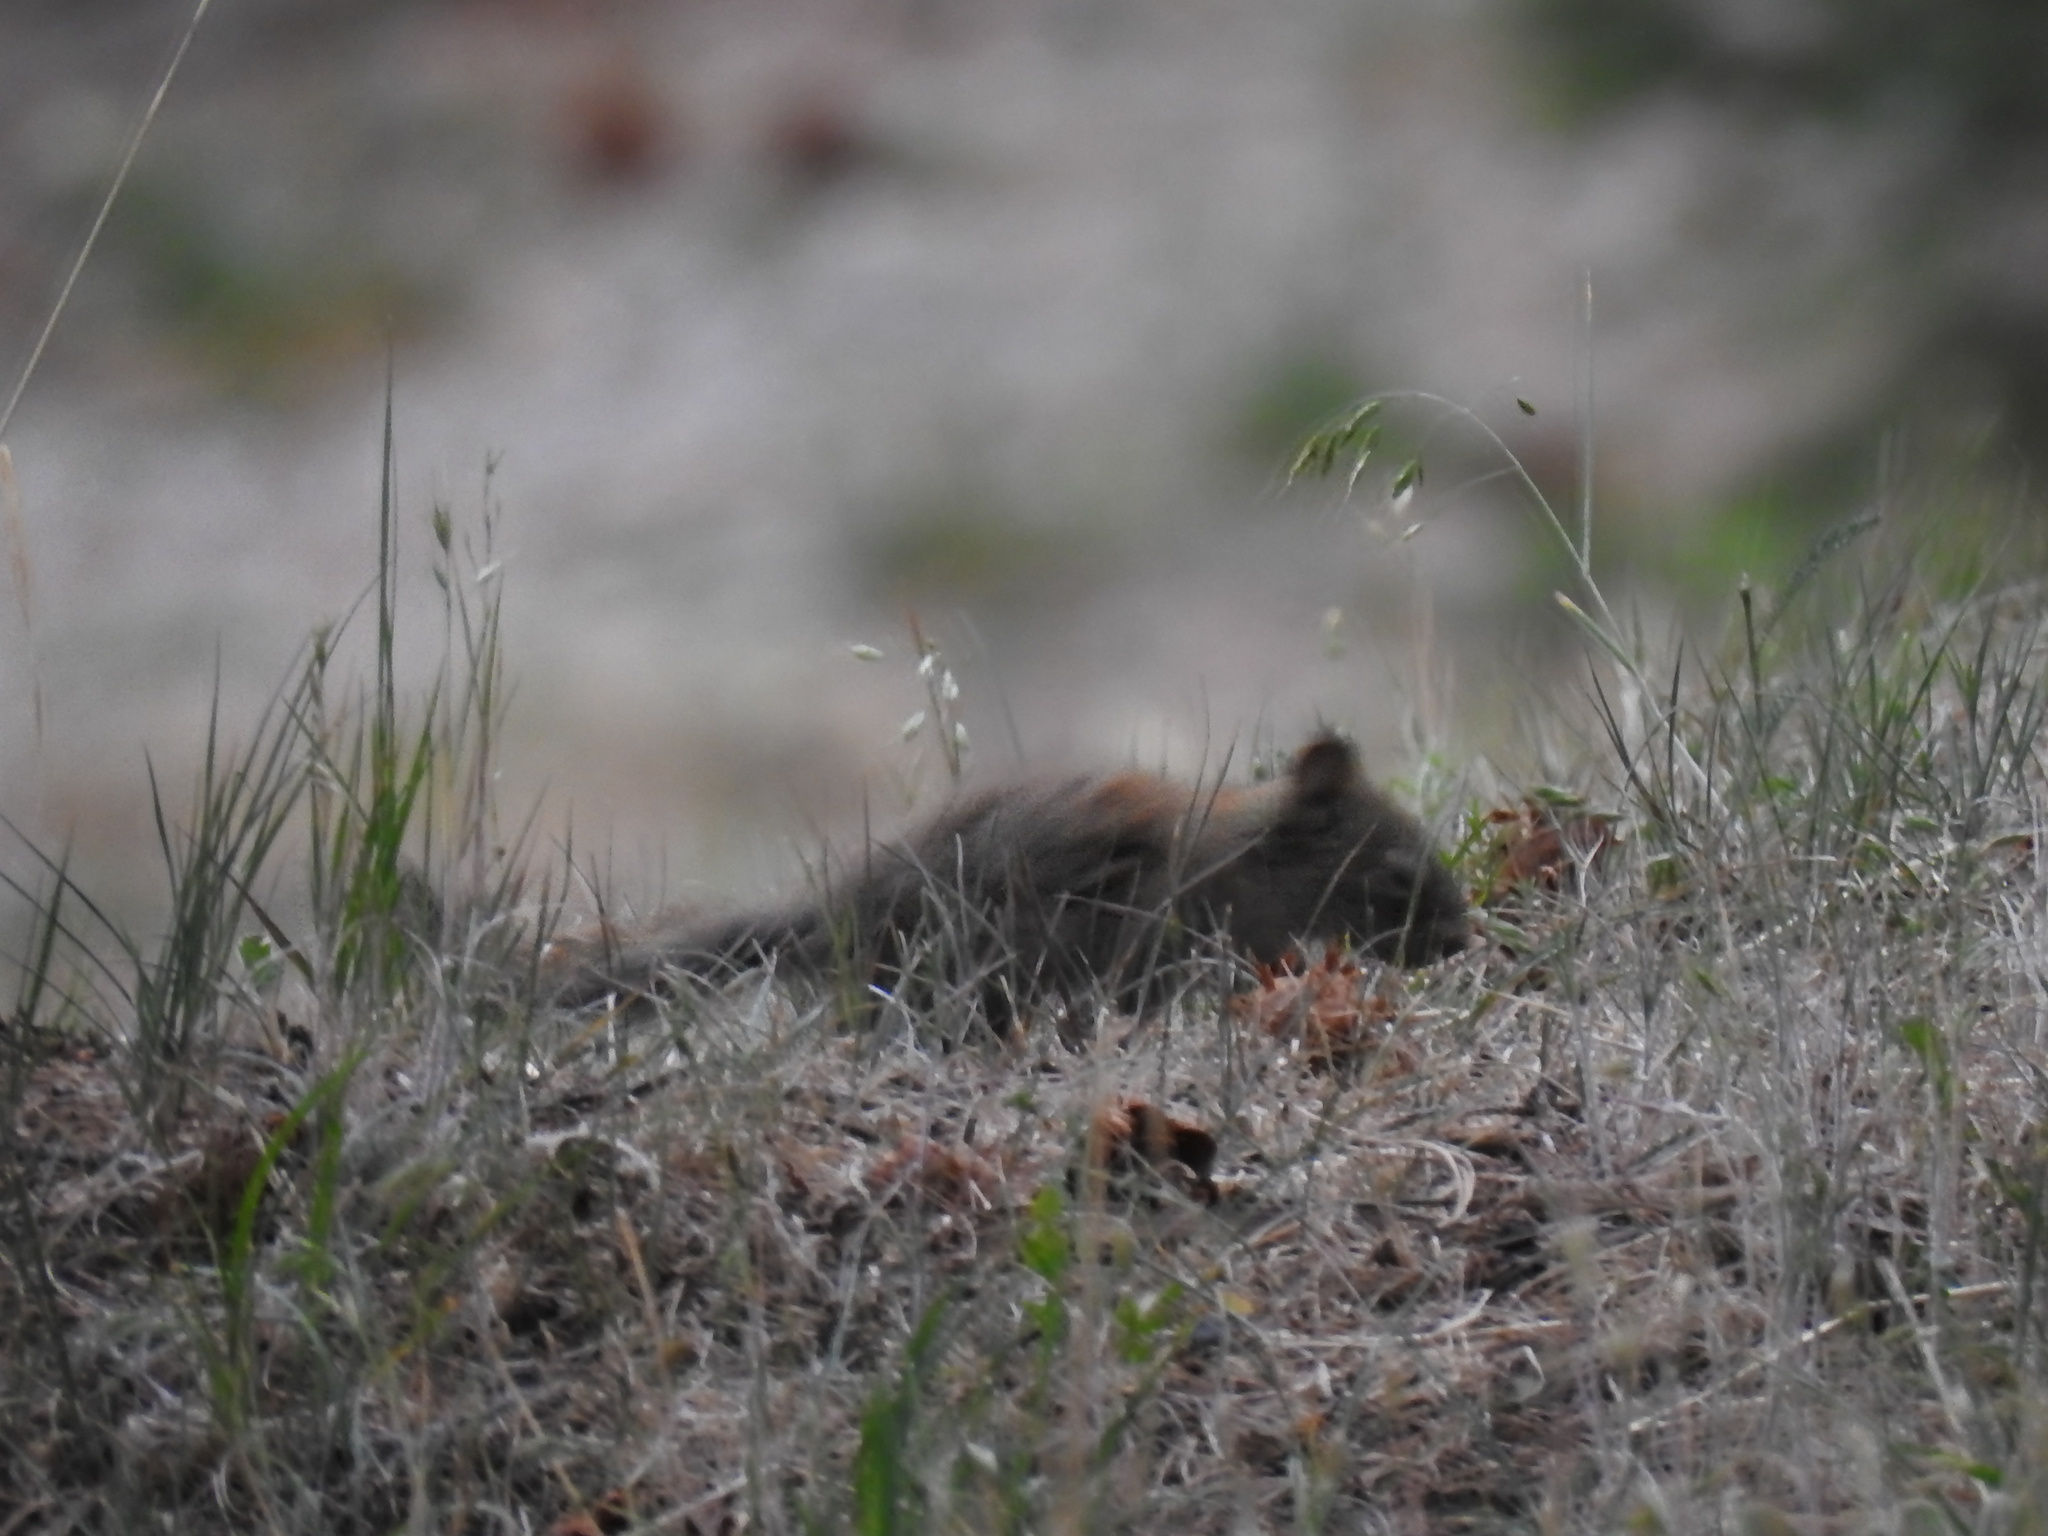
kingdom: Animalia
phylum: Chordata
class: Mammalia
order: Rodentia
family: Sciuridae
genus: Tamiasciurus
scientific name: Tamiasciurus hudsonicus
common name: Red squirrel
